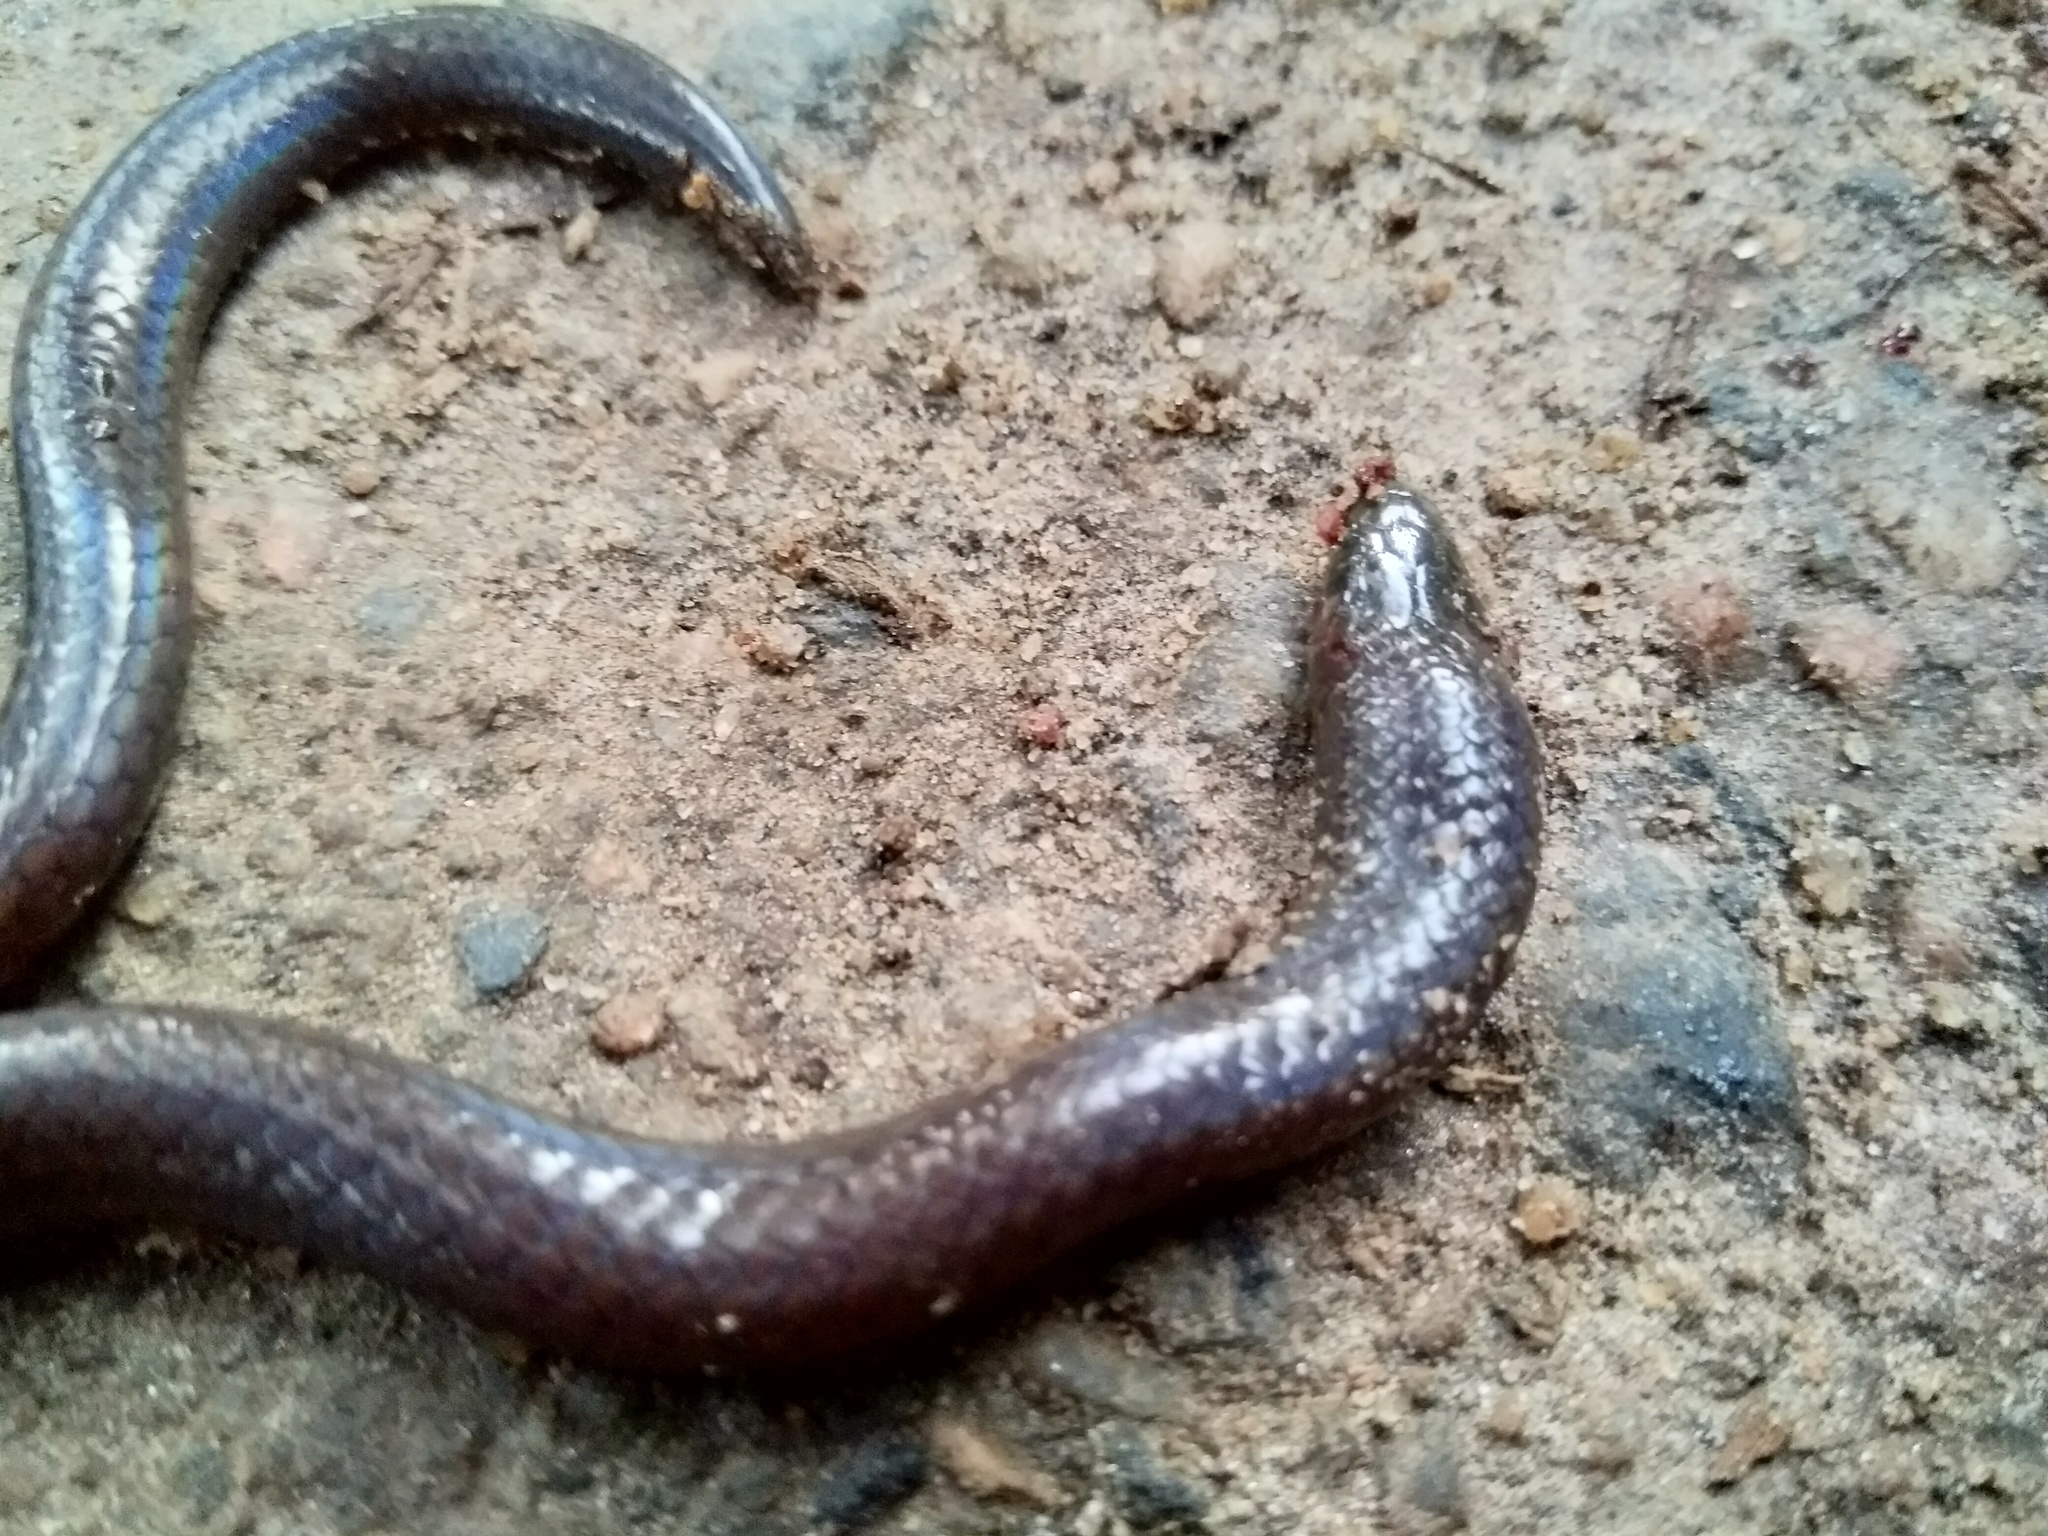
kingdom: Animalia
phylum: Chordata
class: Squamata
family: Uropeltidae
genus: Platyplectrurus
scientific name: Platyplectrurus madurensis
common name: Travancore hills thorntail snake
